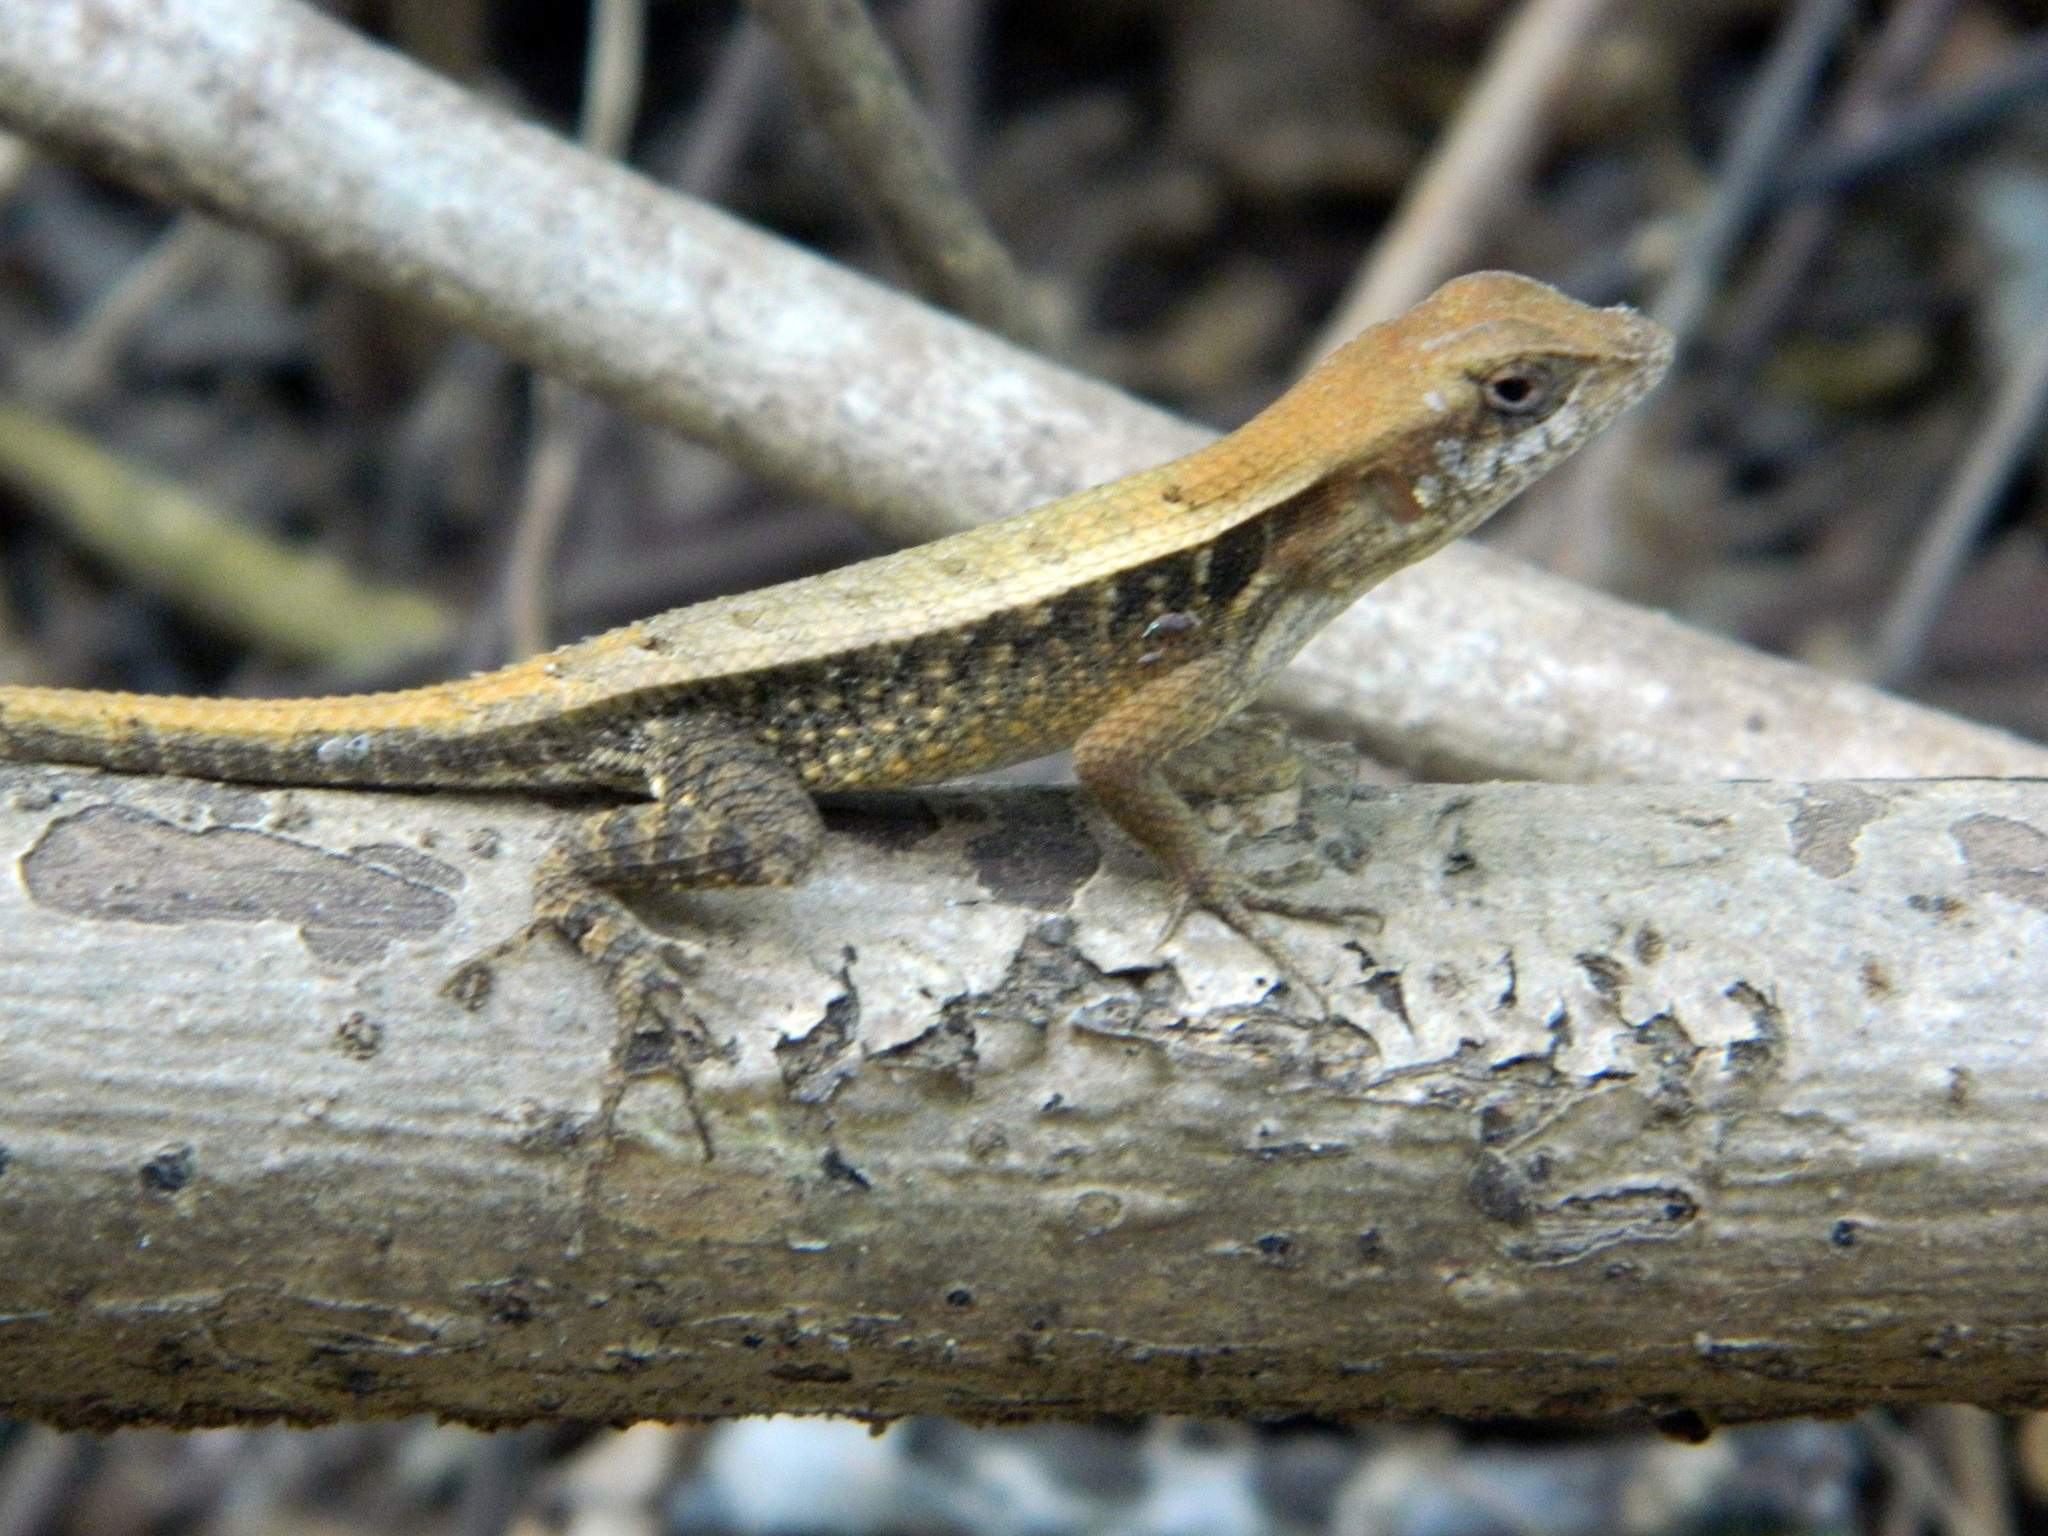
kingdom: Animalia
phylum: Chordata
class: Squamata
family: Phrynosomatidae
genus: Sceloporus
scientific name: Sceloporus siniferus
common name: Longtail spiny lizard
